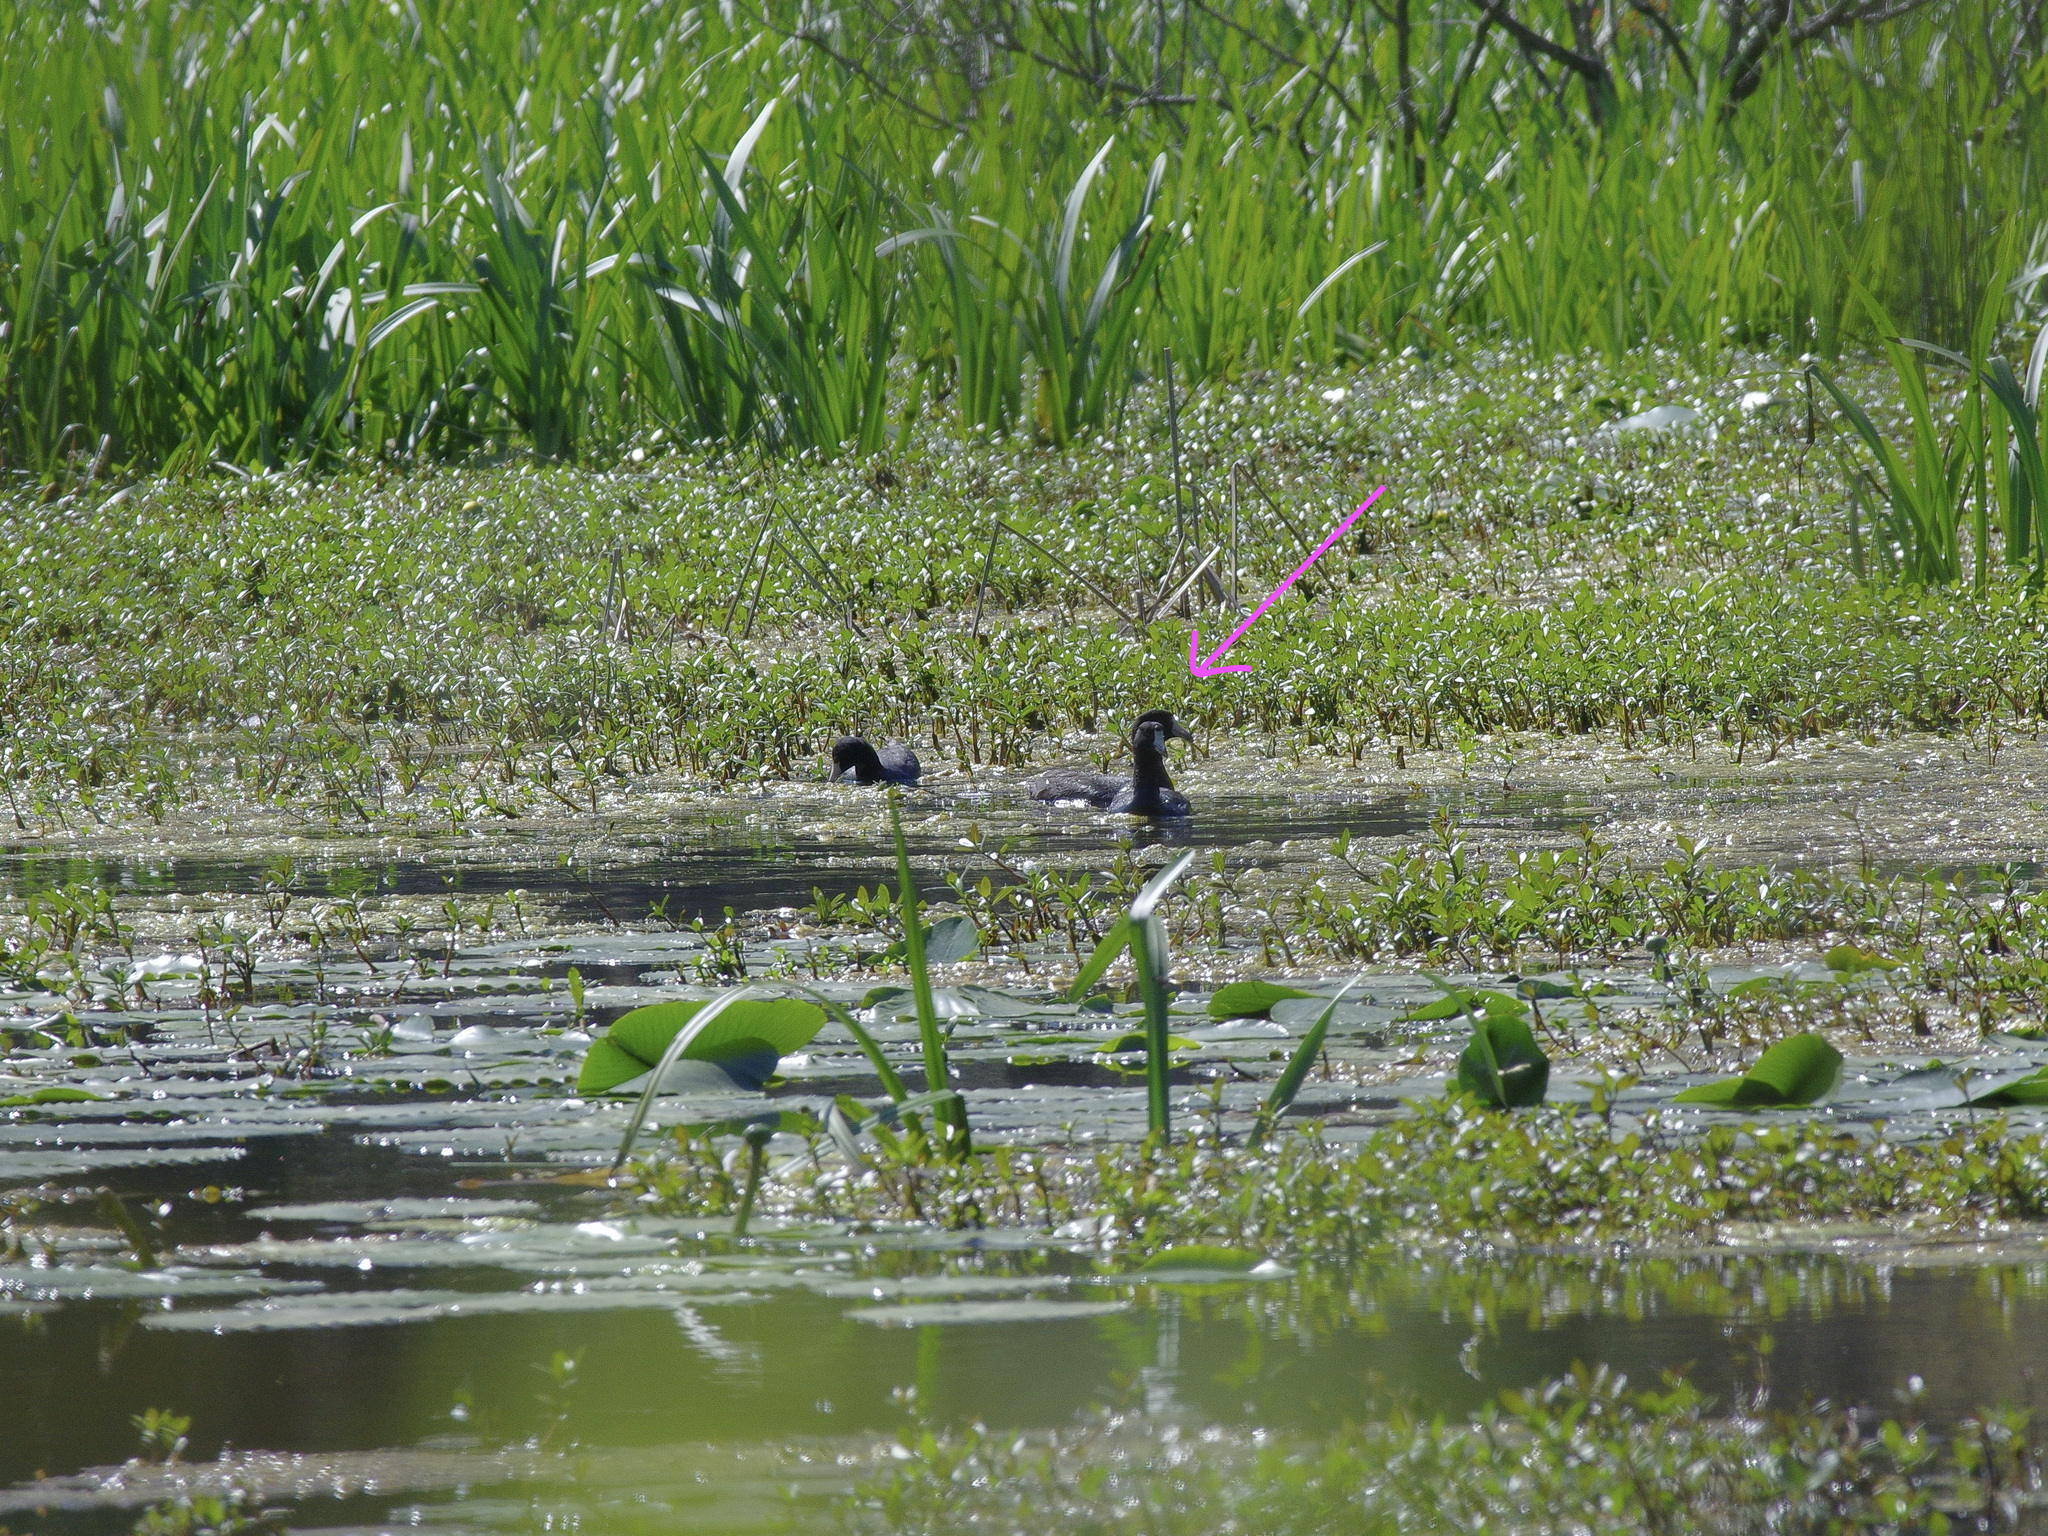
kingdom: Animalia
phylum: Chordata
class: Aves
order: Gruiformes
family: Rallidae
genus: Fulica
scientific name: Fulica americana
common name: American coot
